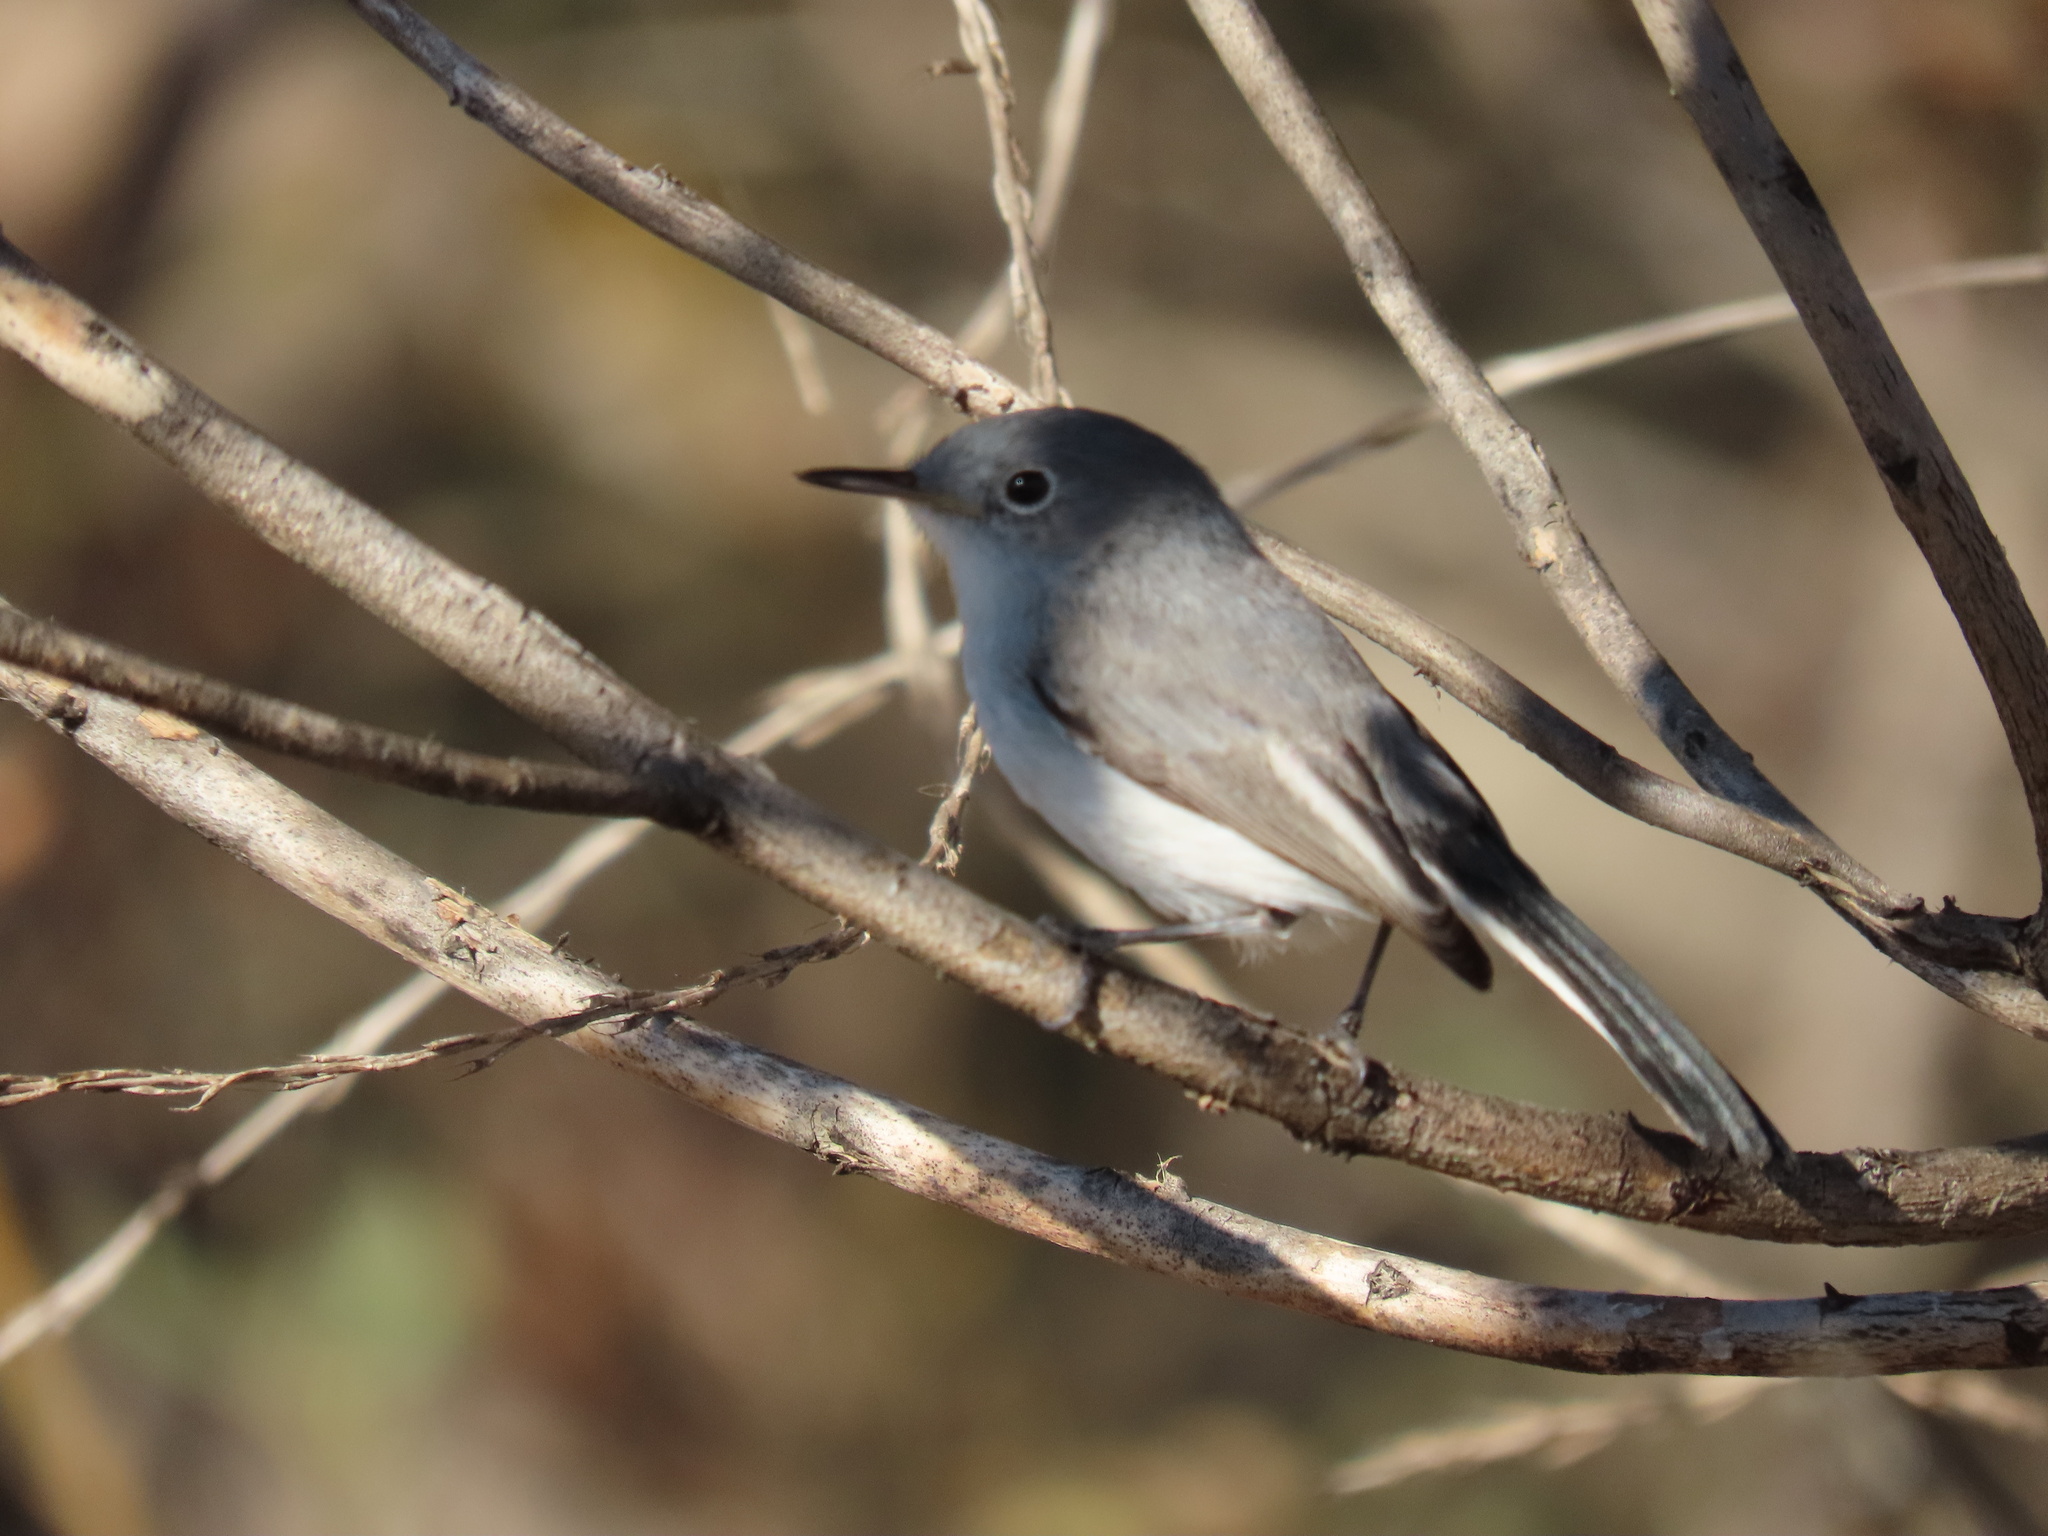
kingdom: Animalia
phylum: Chordata
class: Aves
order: Passeriformes
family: Polioptilidae
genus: Polioptila
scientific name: Polioptila caerulea
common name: Blue-gray gnatcatcher
